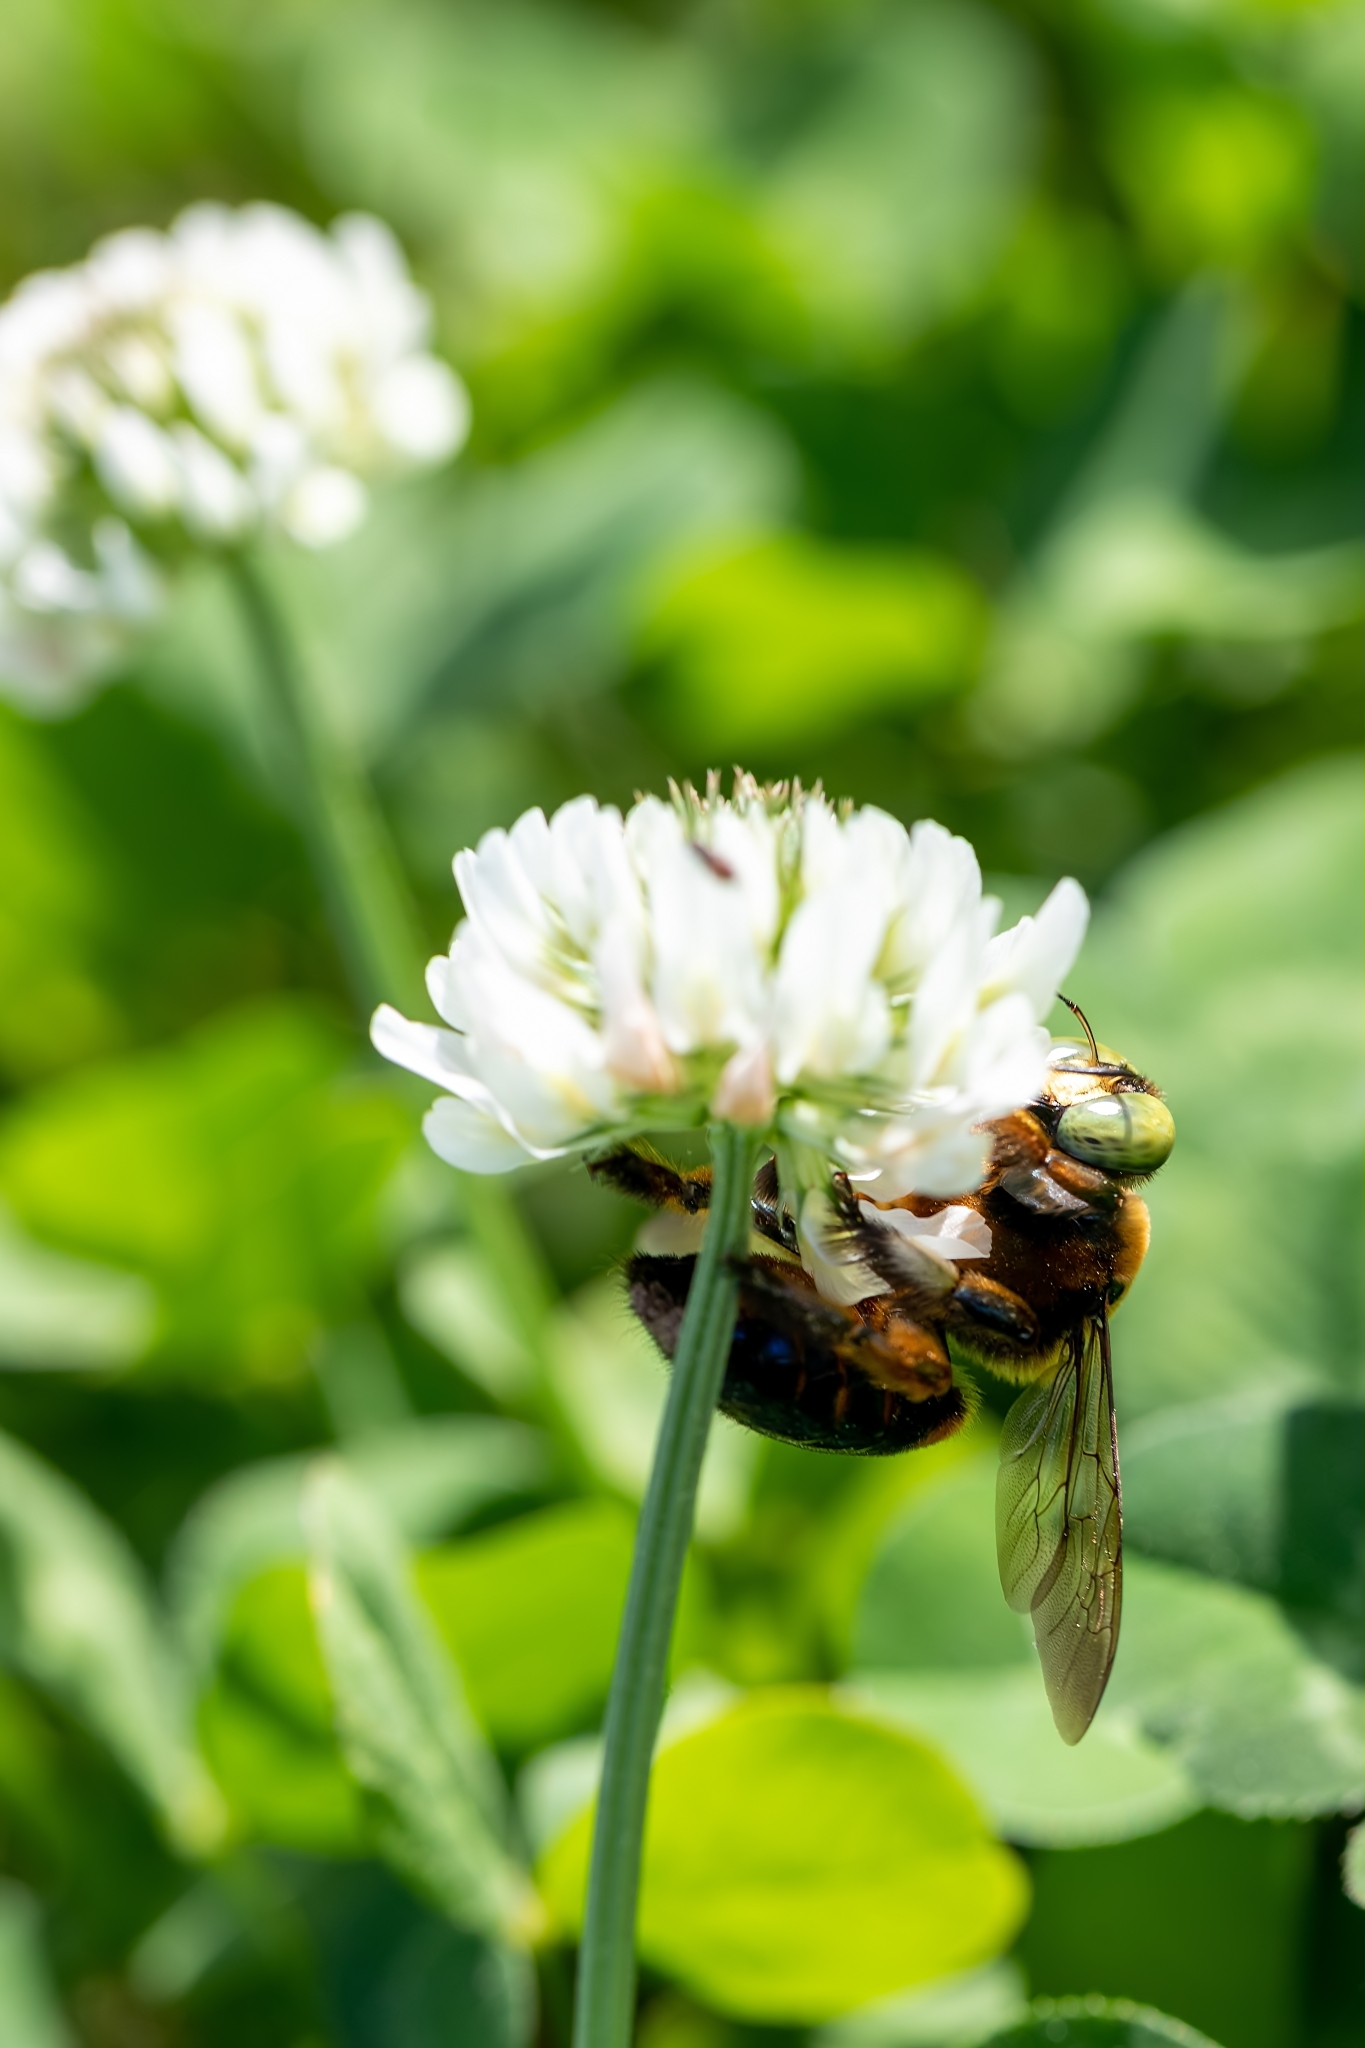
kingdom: Animalia
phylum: Arthropoda
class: Insecta
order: Hymenoptera
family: Apidae
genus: Xylocopa
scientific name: Xylocopa micans
